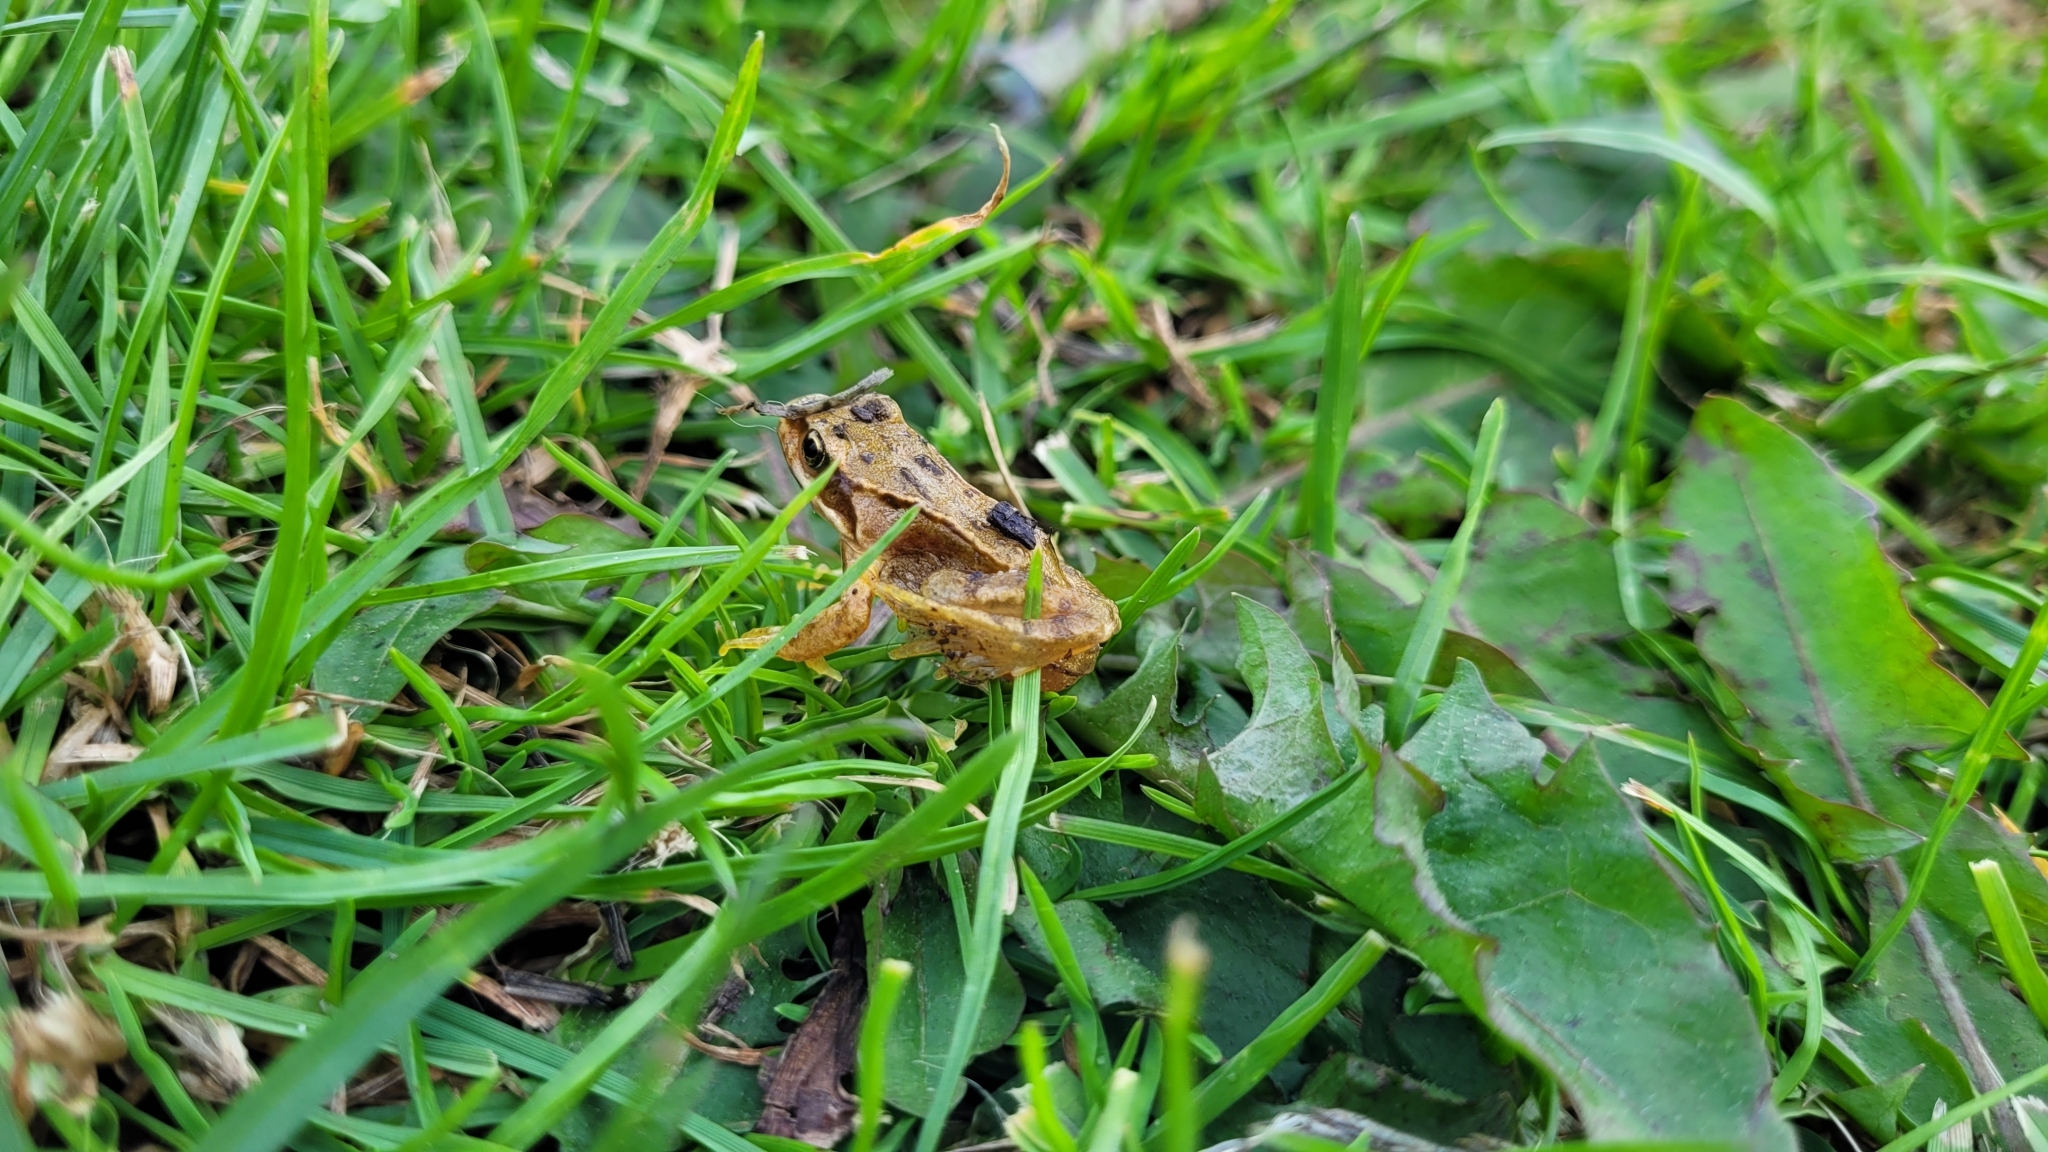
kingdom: Animalia
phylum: Chordata
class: Amphibia
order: Anura
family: Ranidae
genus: Rana
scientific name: Rana temporaria
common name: Common frog
